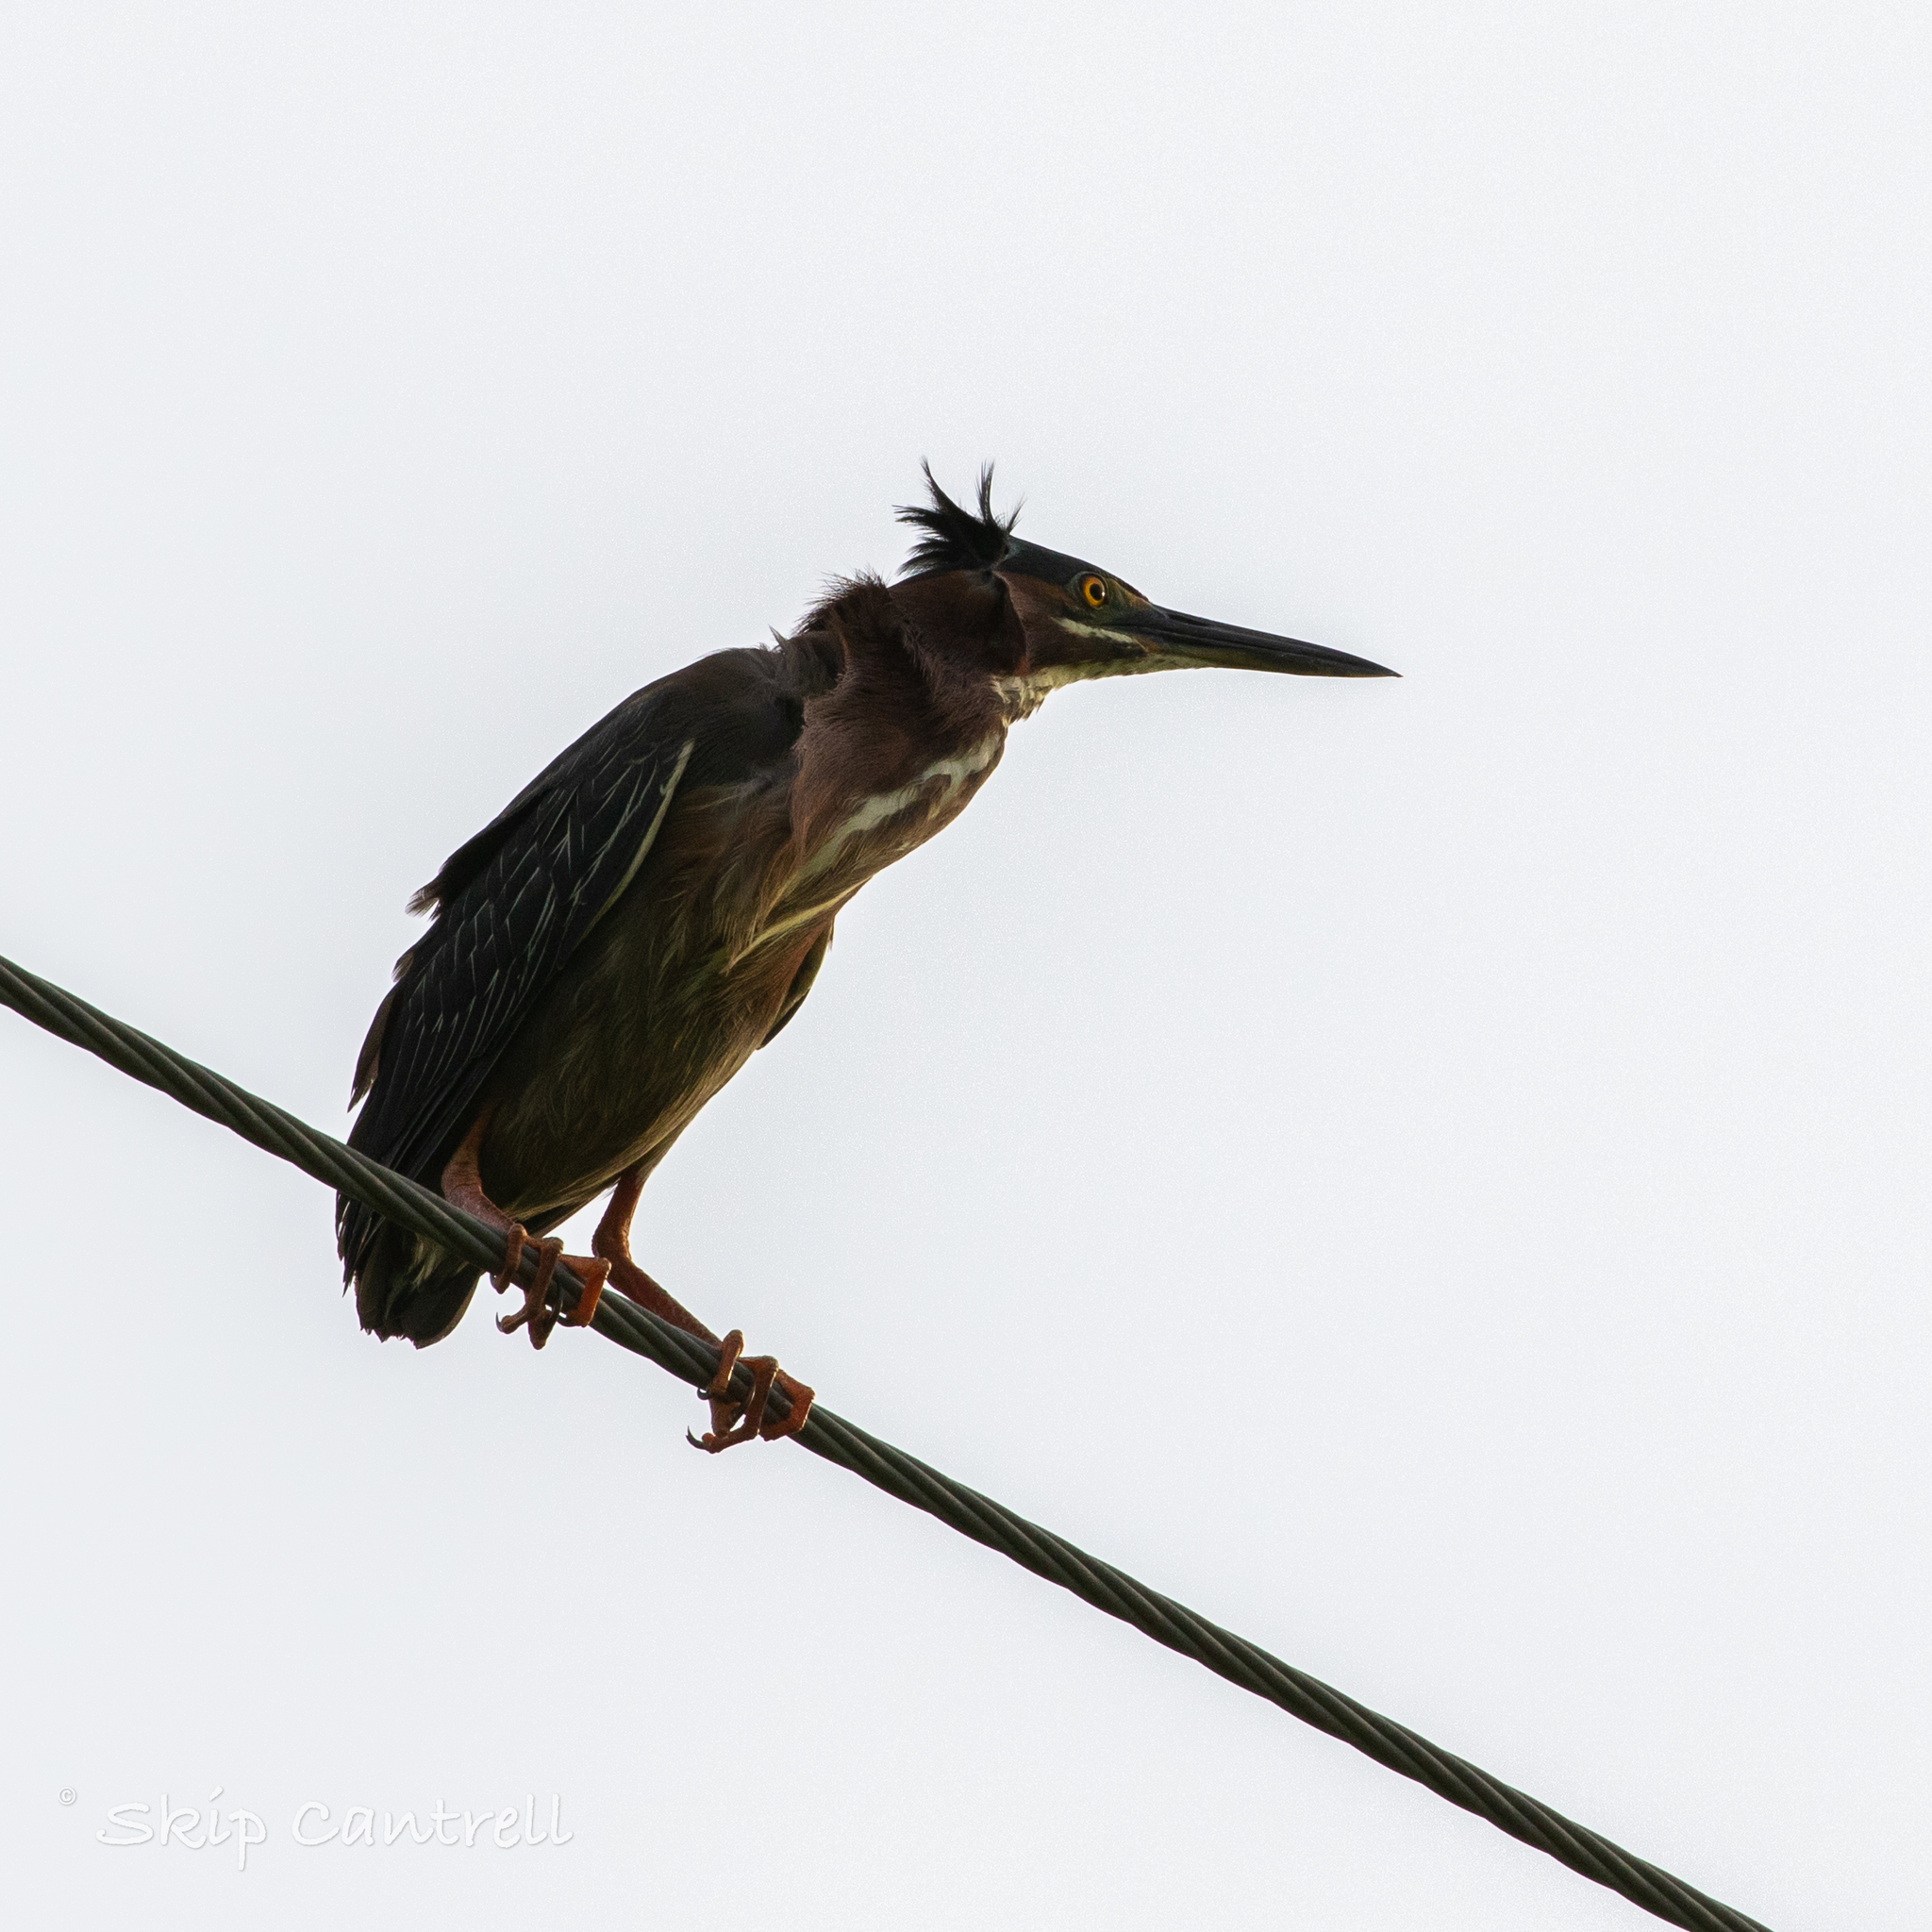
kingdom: Animalia
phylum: Chordata
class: Aves
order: Pelecaniformes
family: Ardeidae
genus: Butorides
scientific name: Butorides virescens
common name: Green heron
